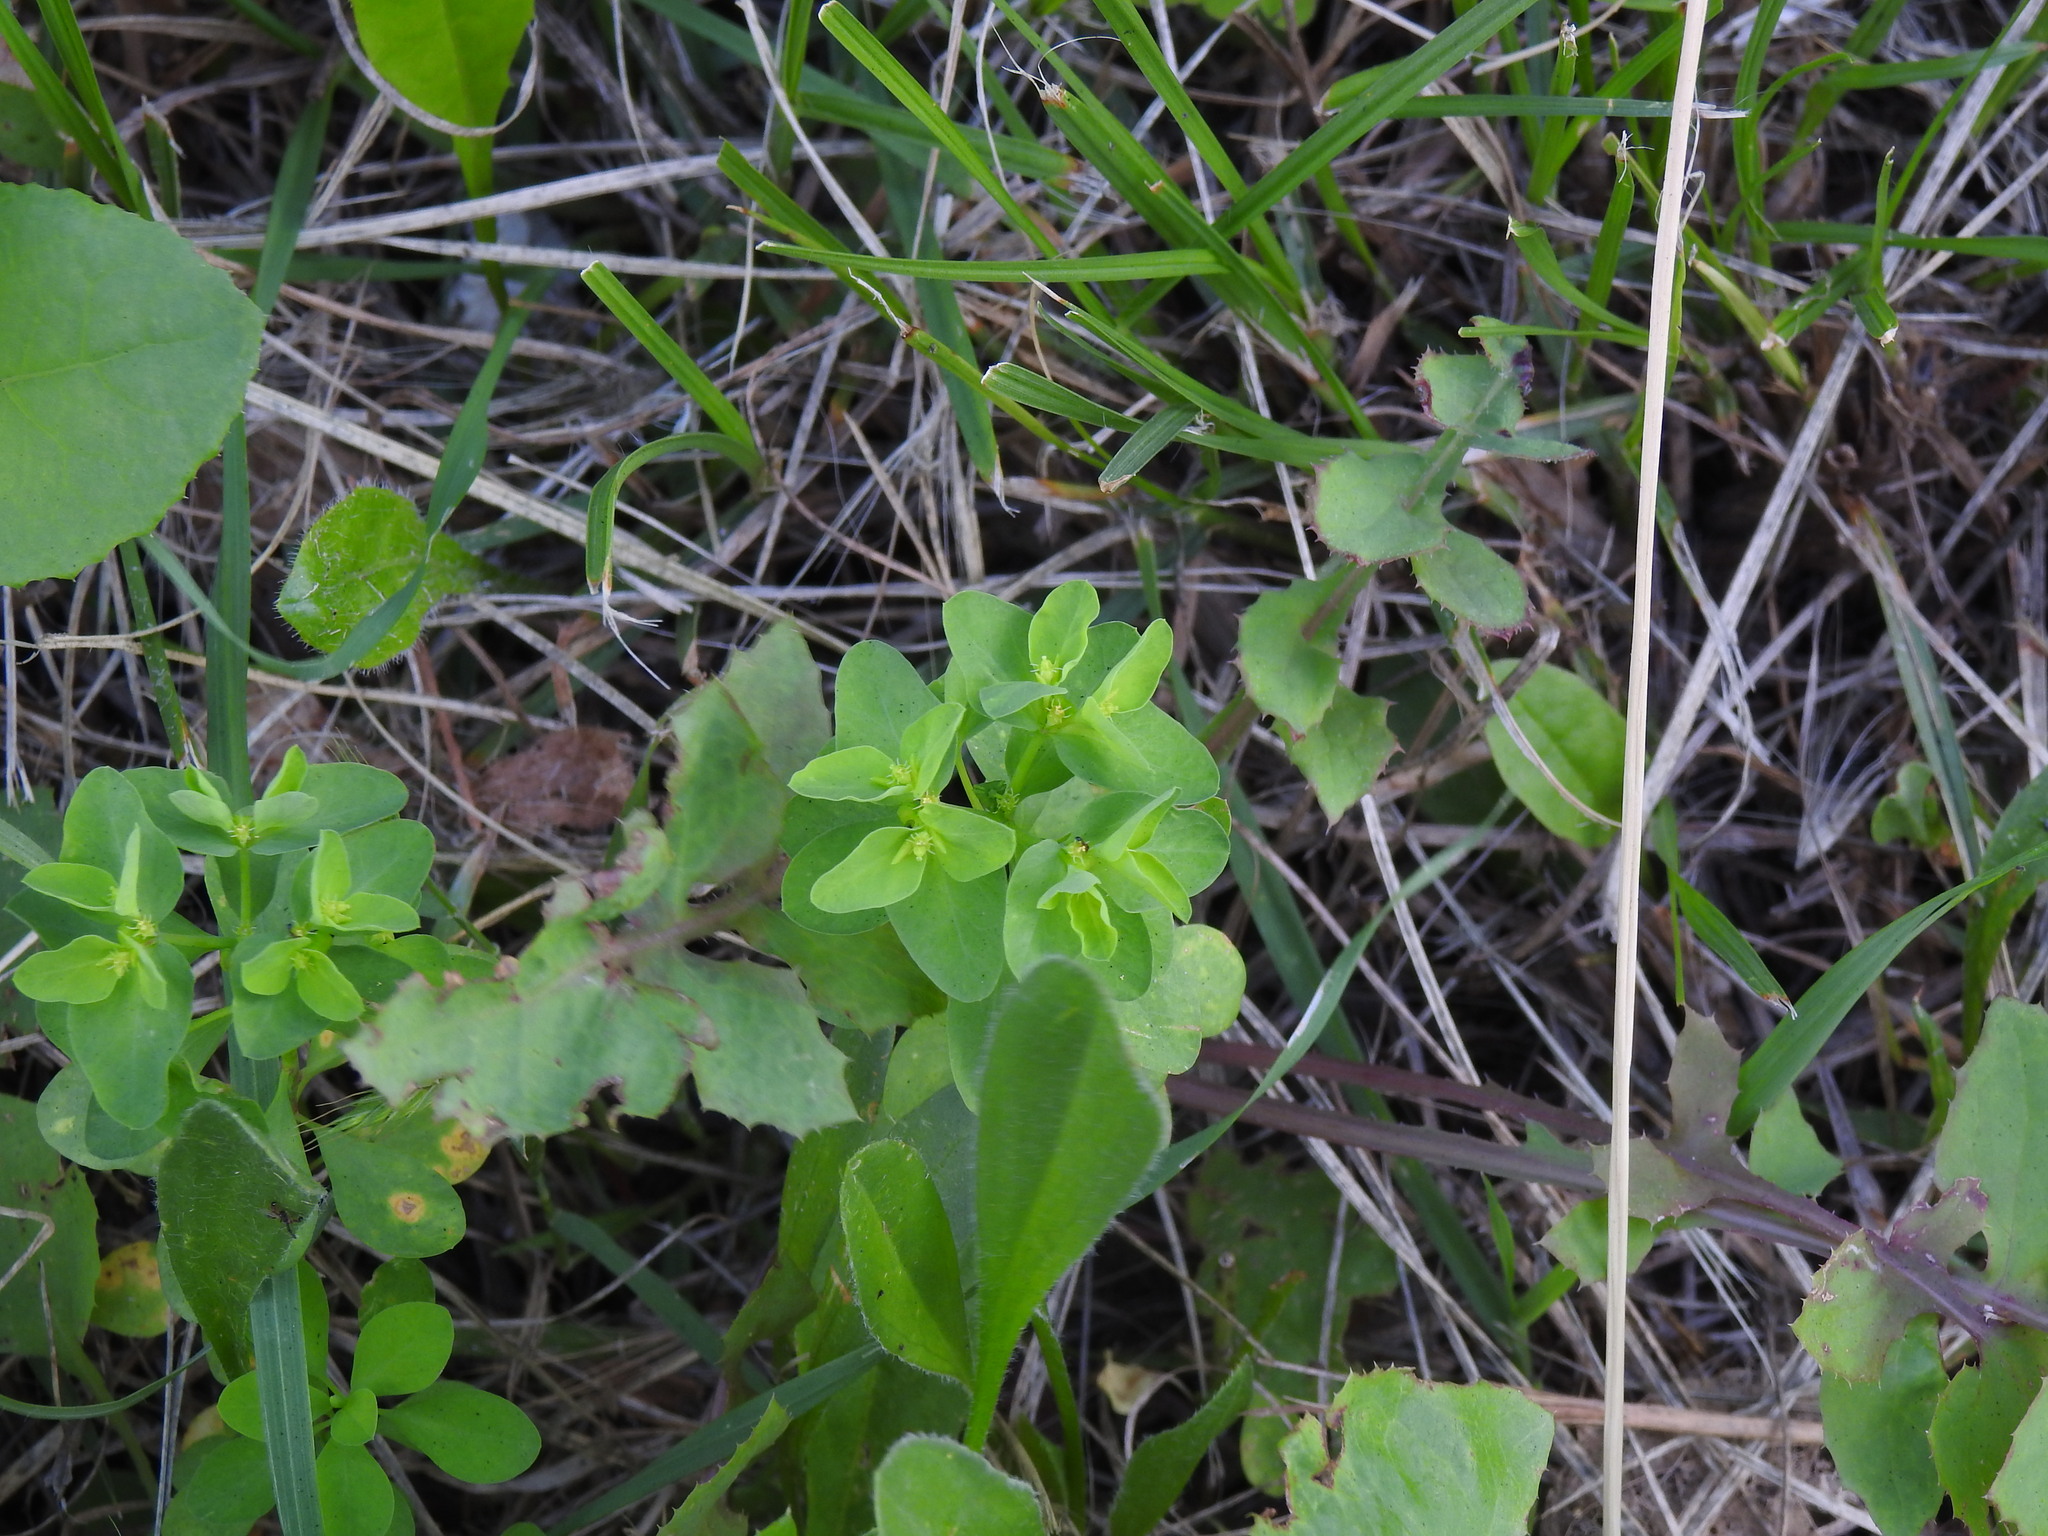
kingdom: Plantae
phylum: Tracheophyta
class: Magnoliopsida
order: Malpighiales
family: Euphorbiaceae
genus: Euphorbia
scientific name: Euphorbia peplus
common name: Petty spurge
